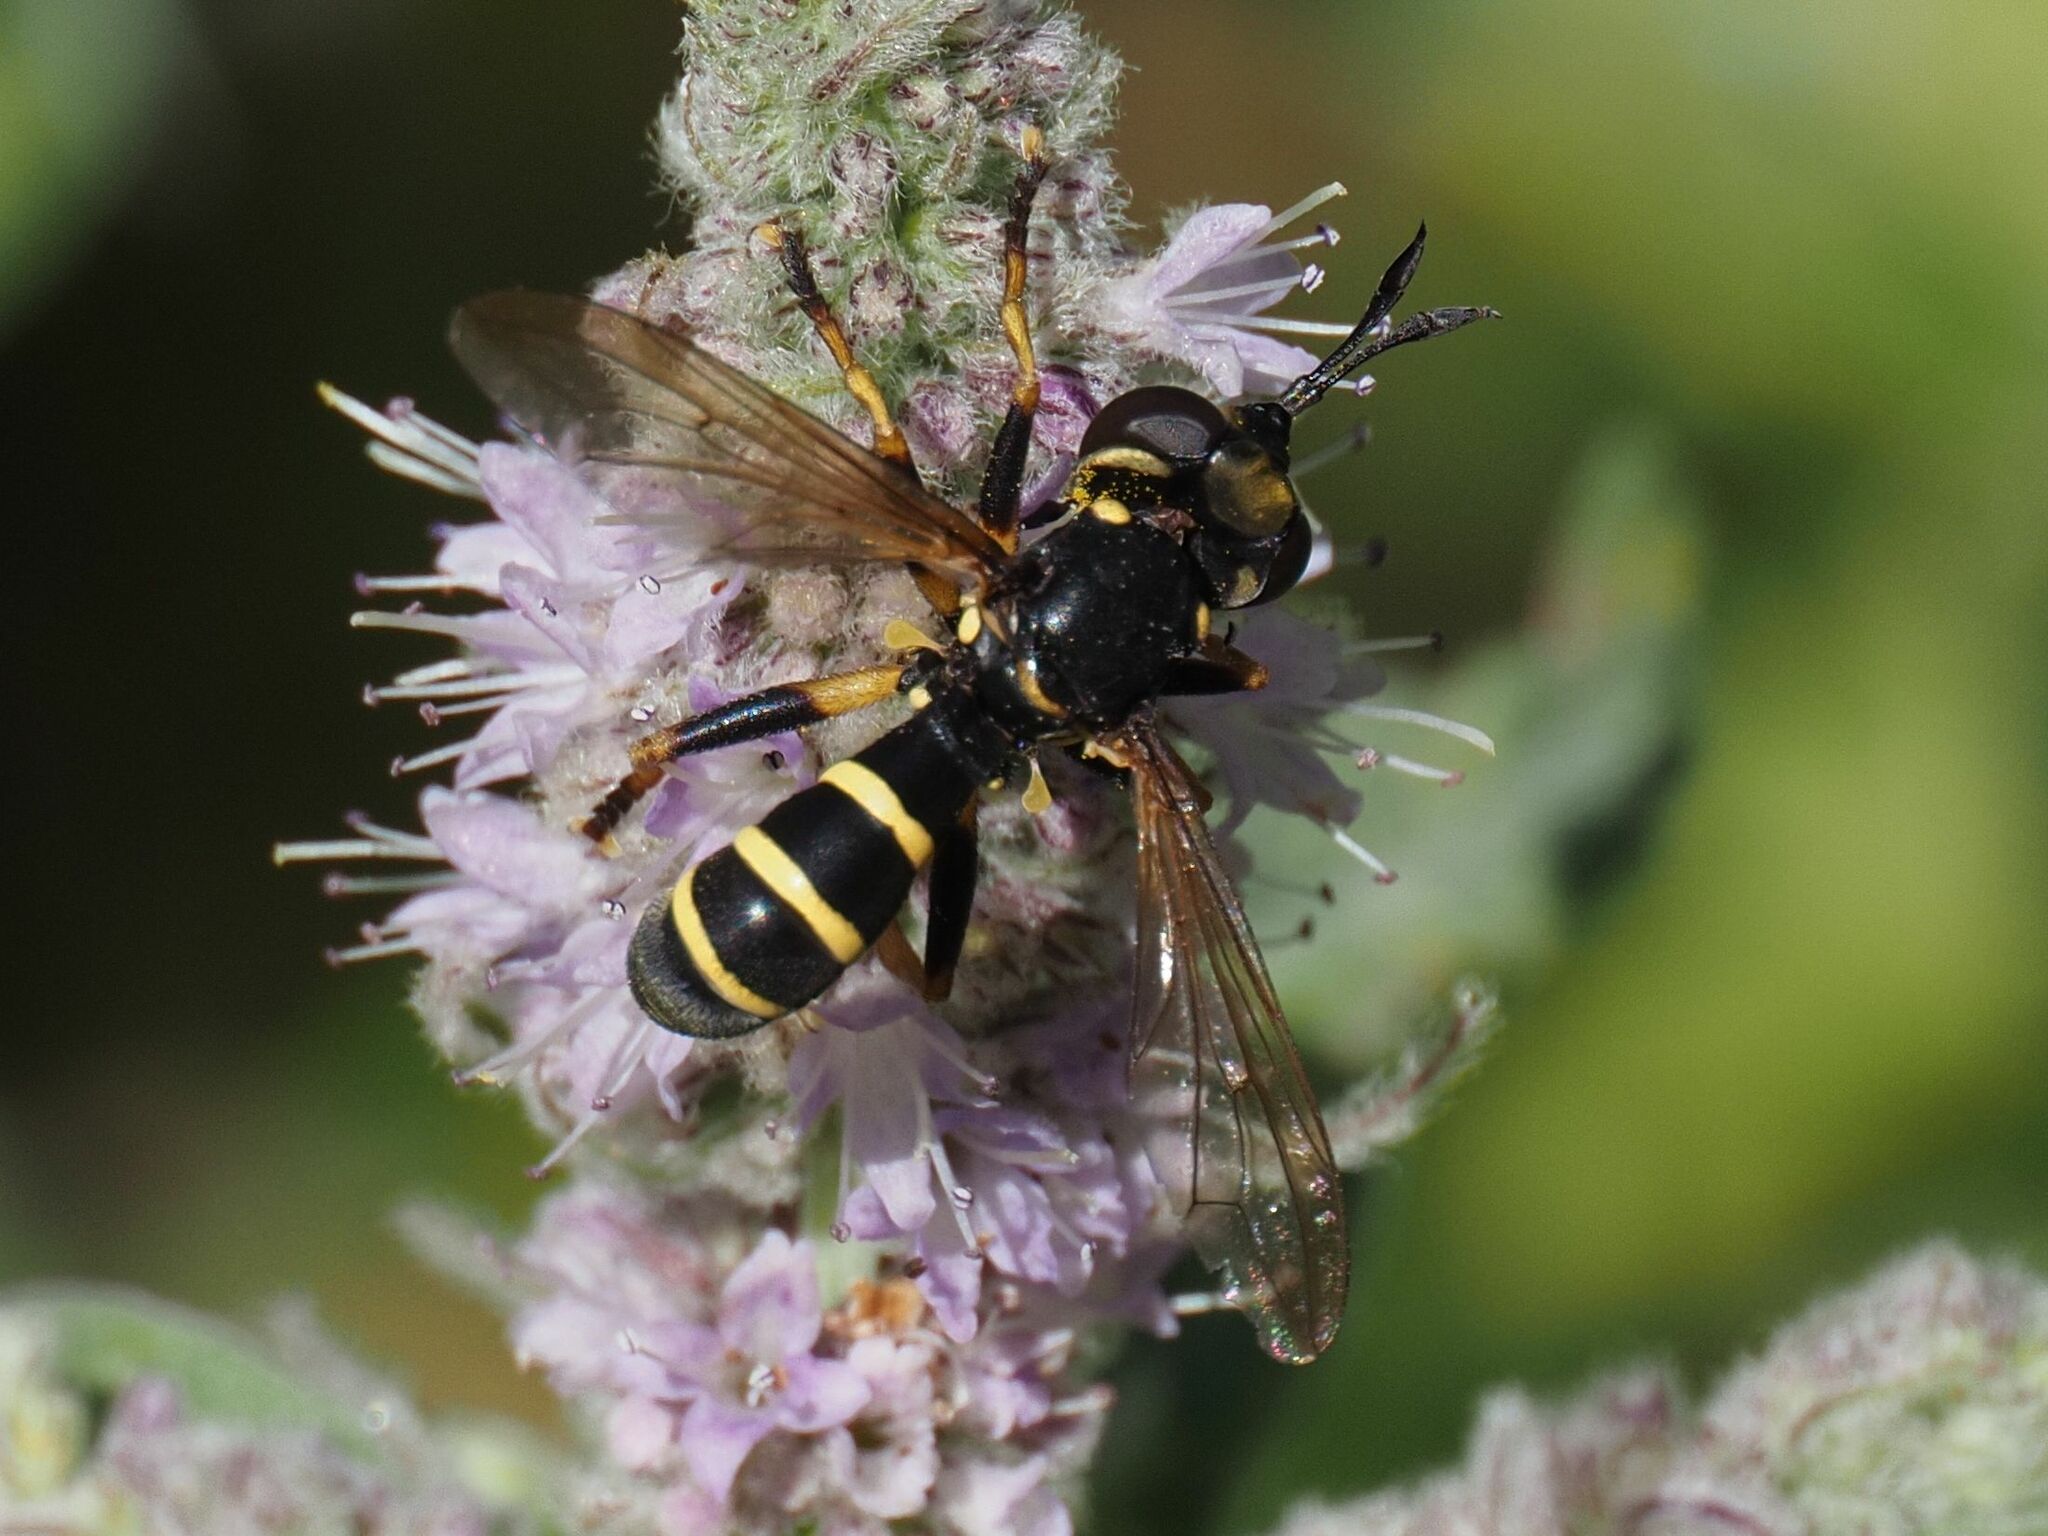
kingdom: Animalia
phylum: Arthropoda
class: Insecta
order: Diptera
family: Conopidae
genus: Conops
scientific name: Conops flavipes
